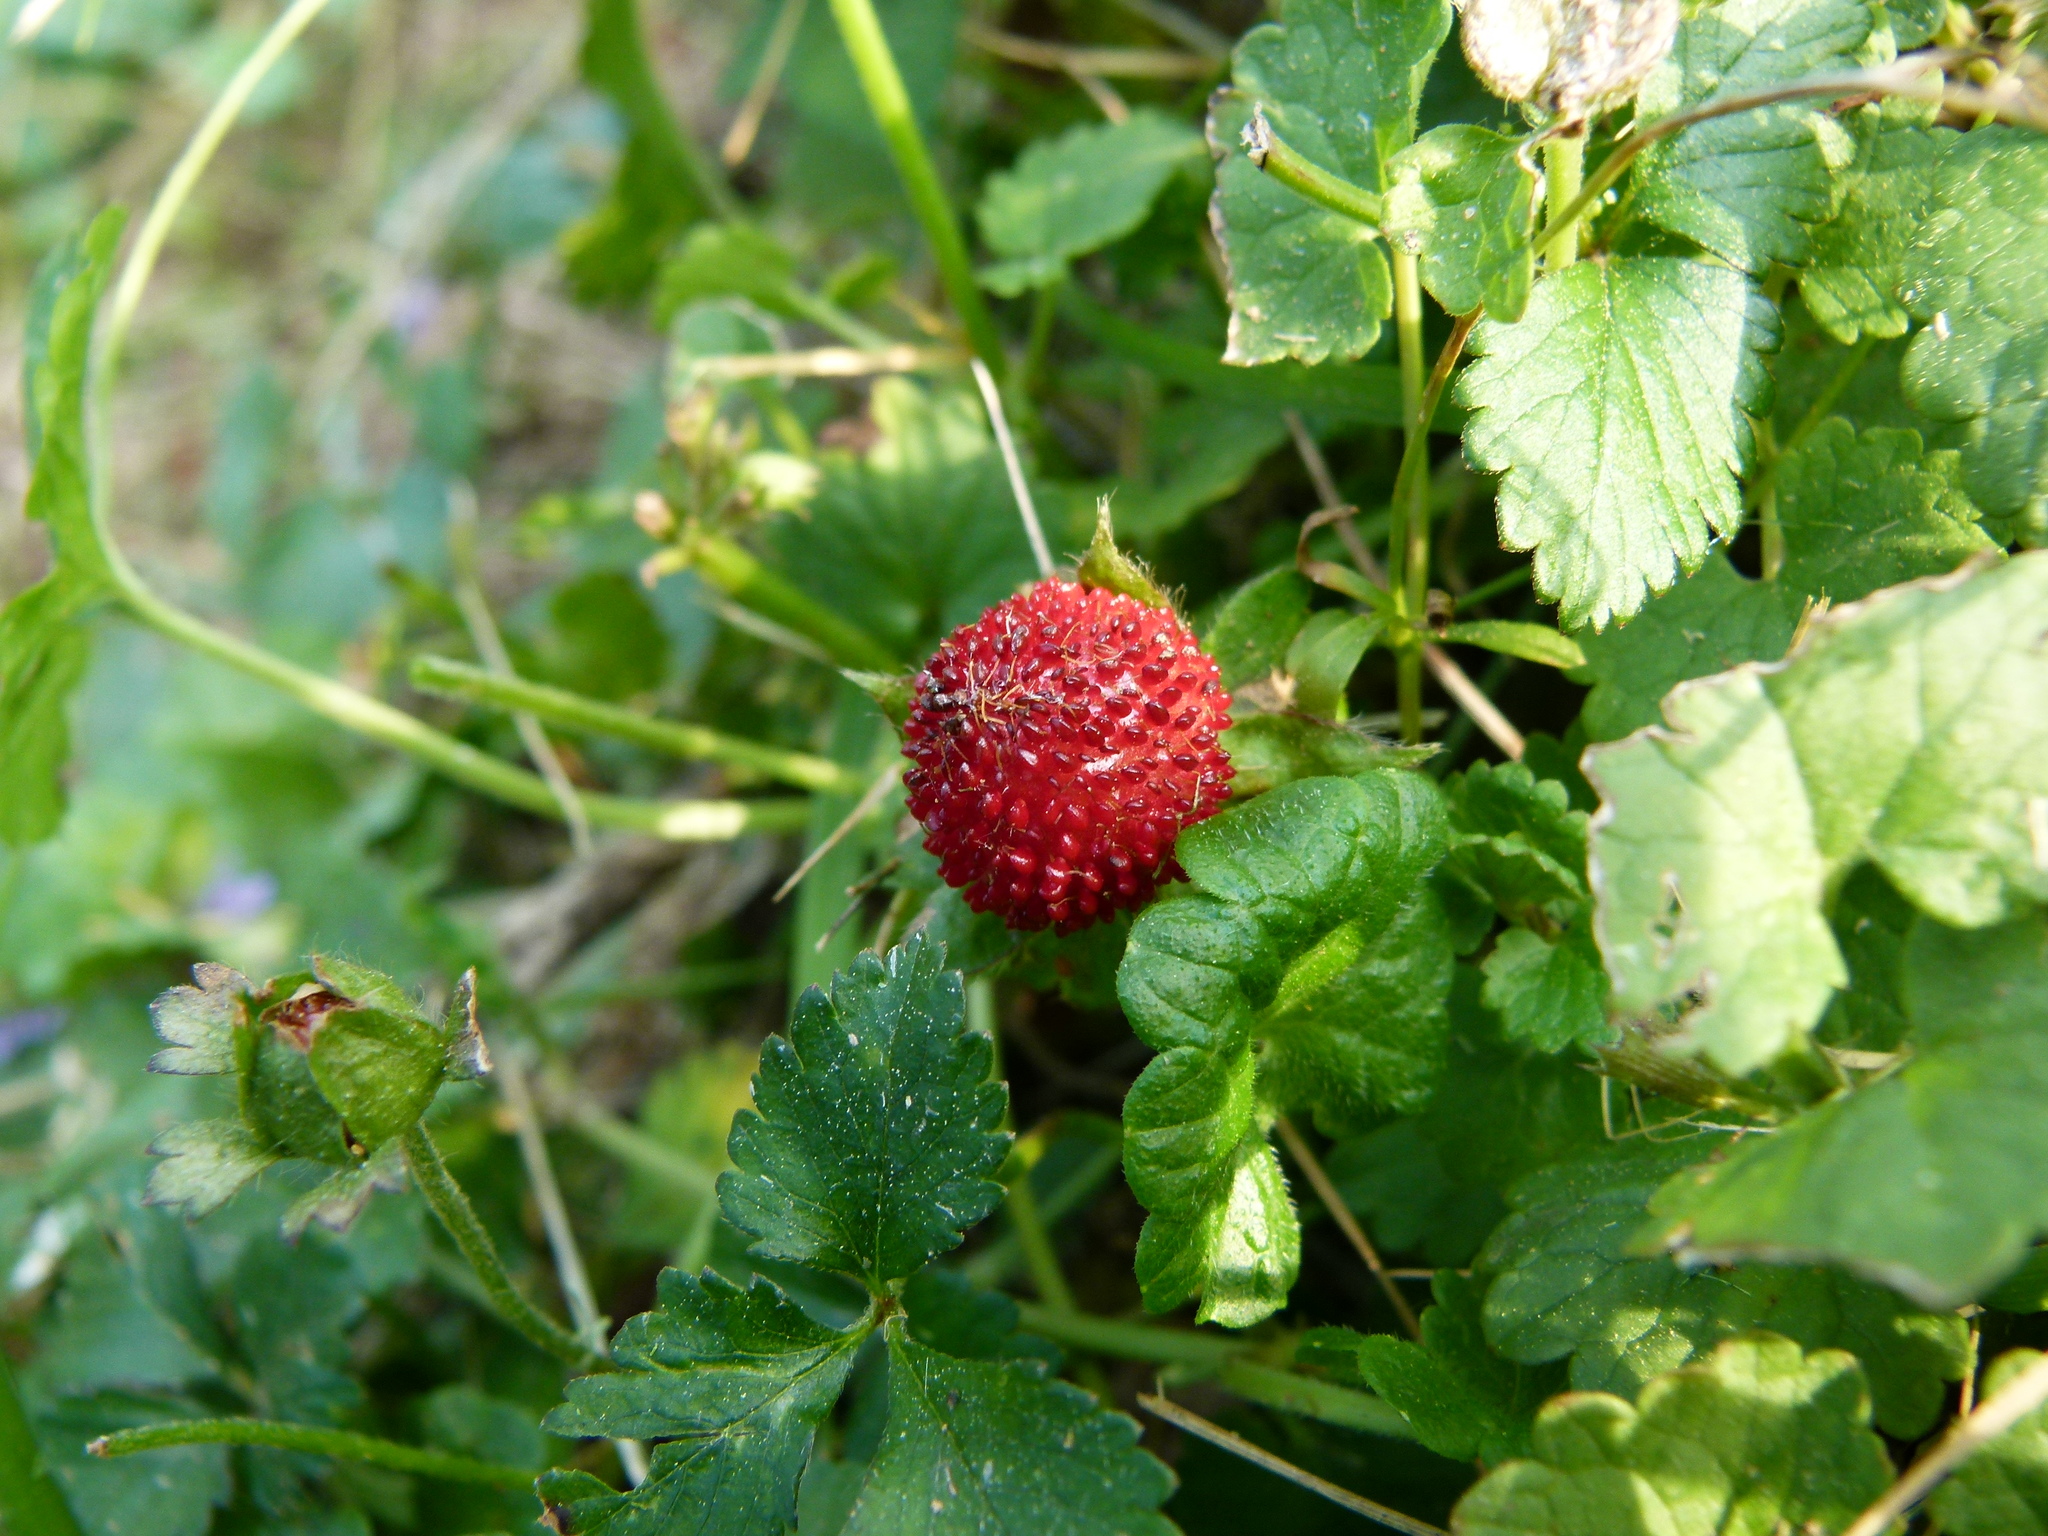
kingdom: Plantae
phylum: Tracheophyta
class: Magnoliopsida
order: Rosales
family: Rosaceae
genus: Potentilla
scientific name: Potentilla indica
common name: Yellow-flowered strawberry
